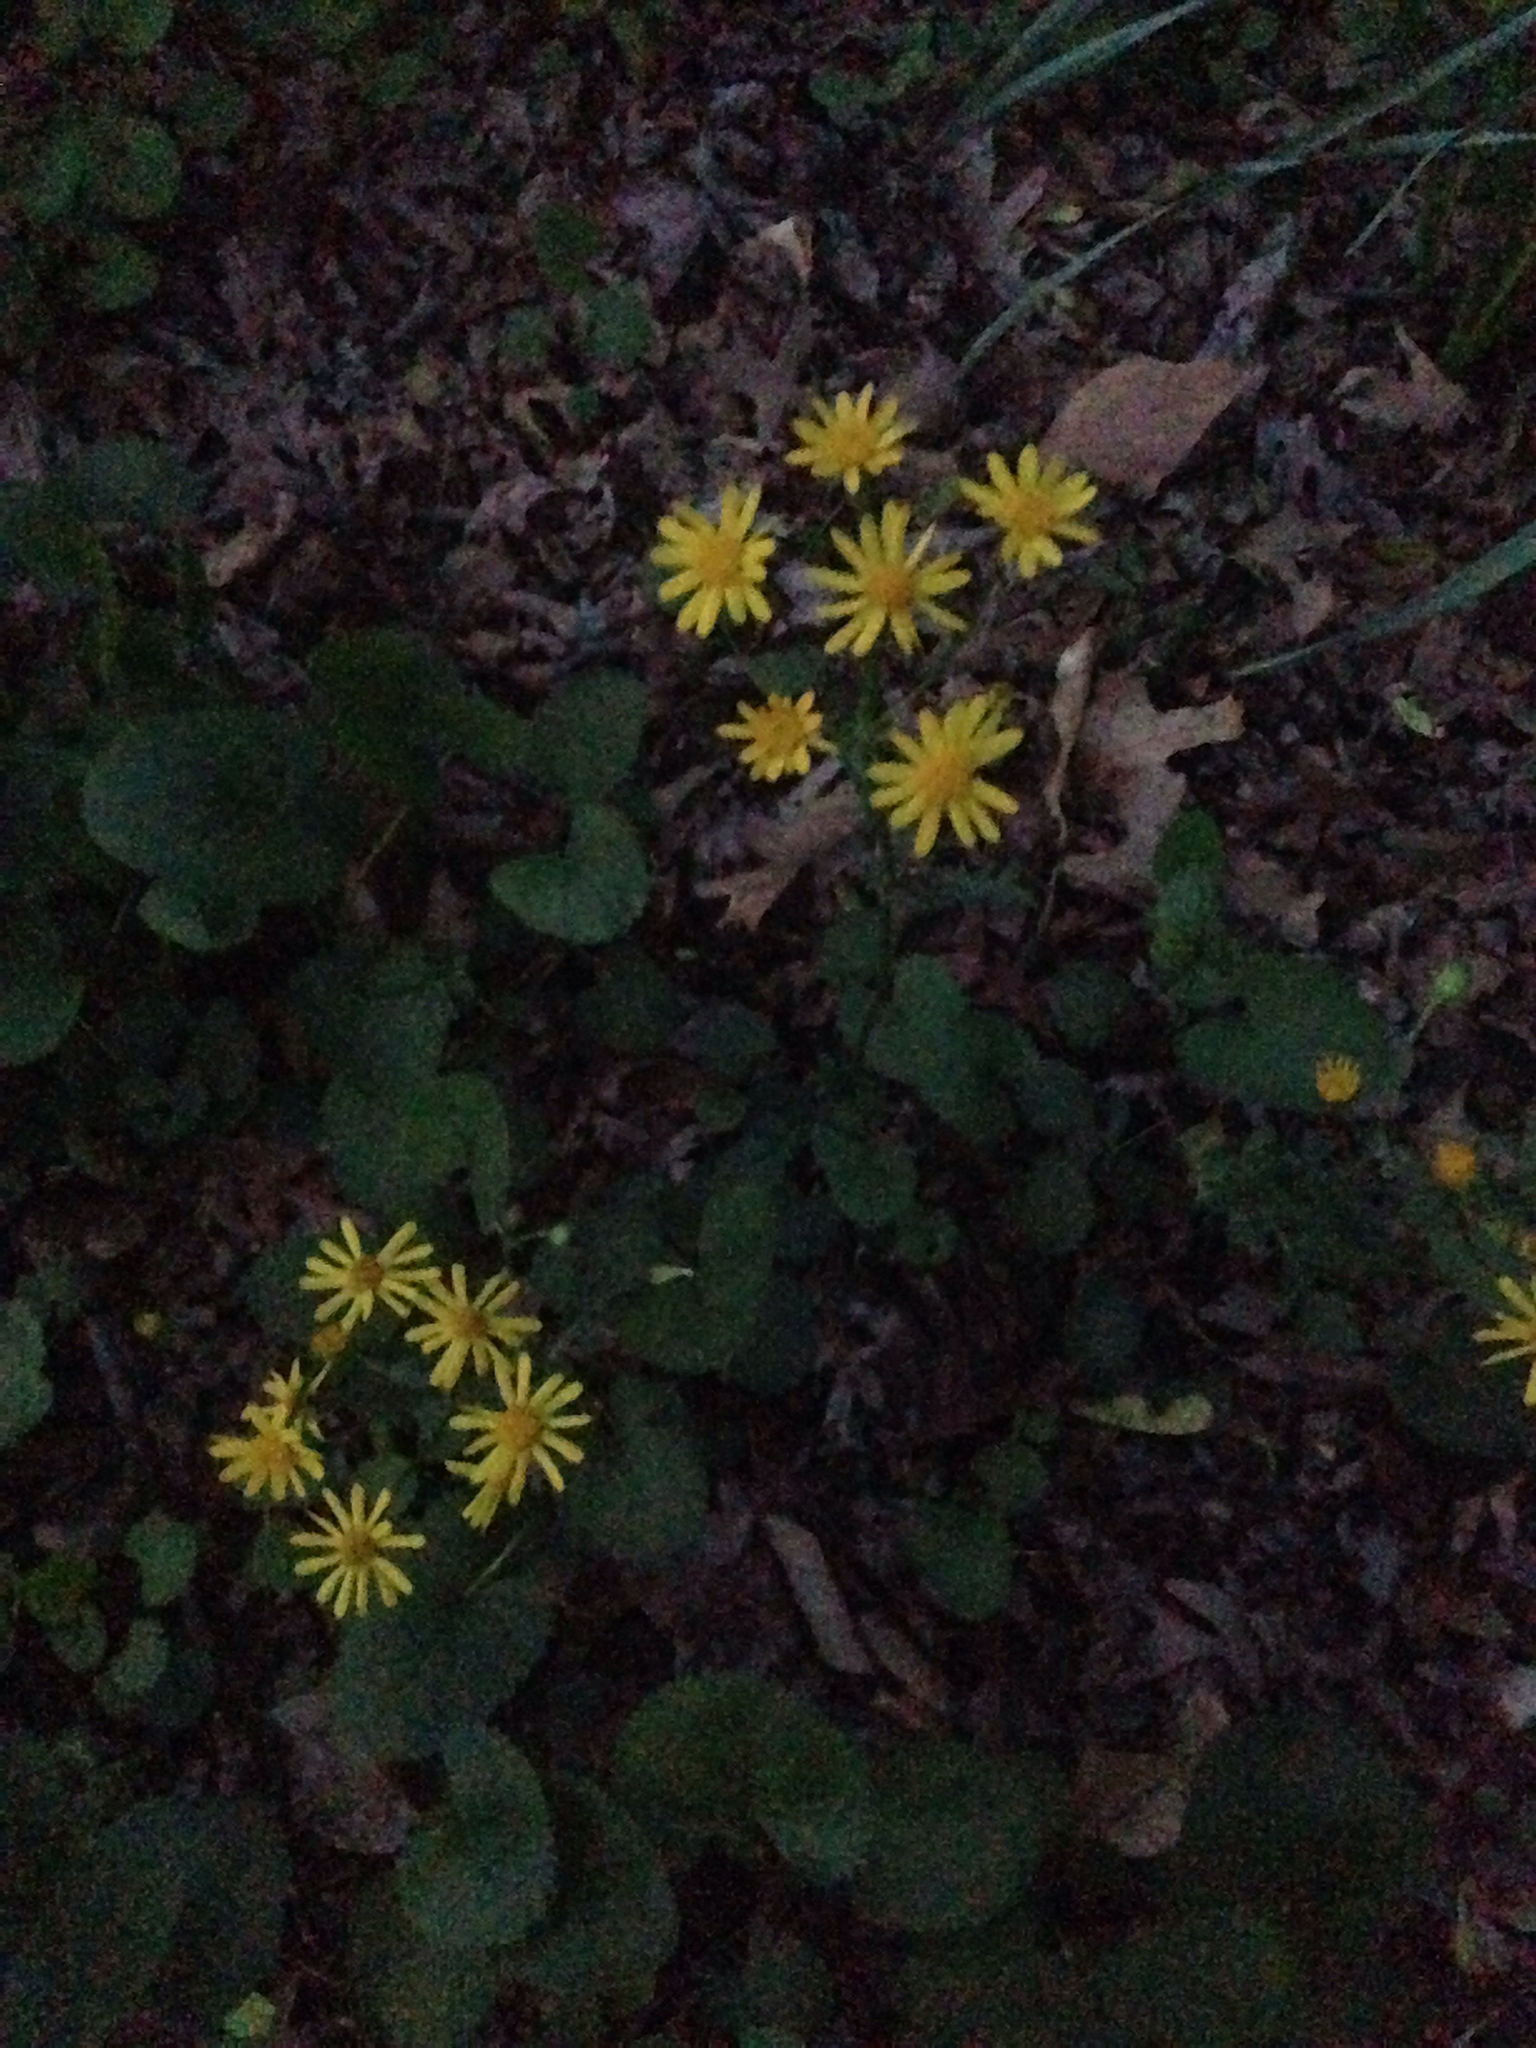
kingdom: Plantae
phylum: Tracheophyta
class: Magnoliopsida
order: Asterales
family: Asteraceae
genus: Packera
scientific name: Packera aurea
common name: Golden groundsel
